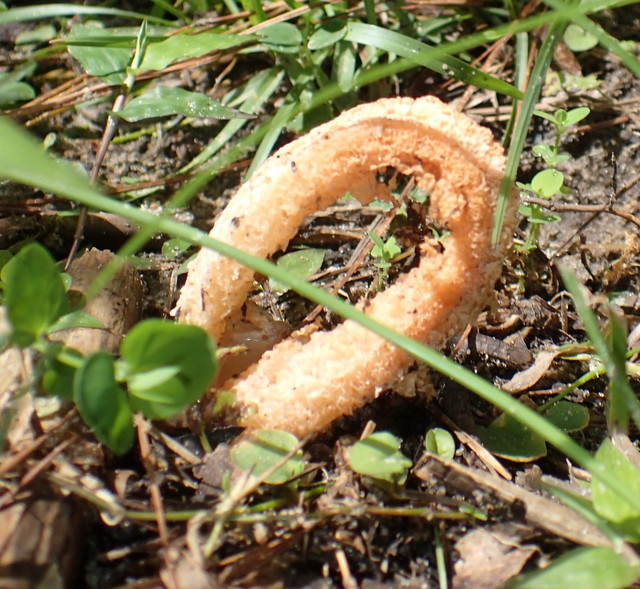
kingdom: Fungi
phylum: Basidiomycota
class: Agaricomycetes
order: Phallales
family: Phallaceae
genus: Clathrus
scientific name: Clathrus columnatus
